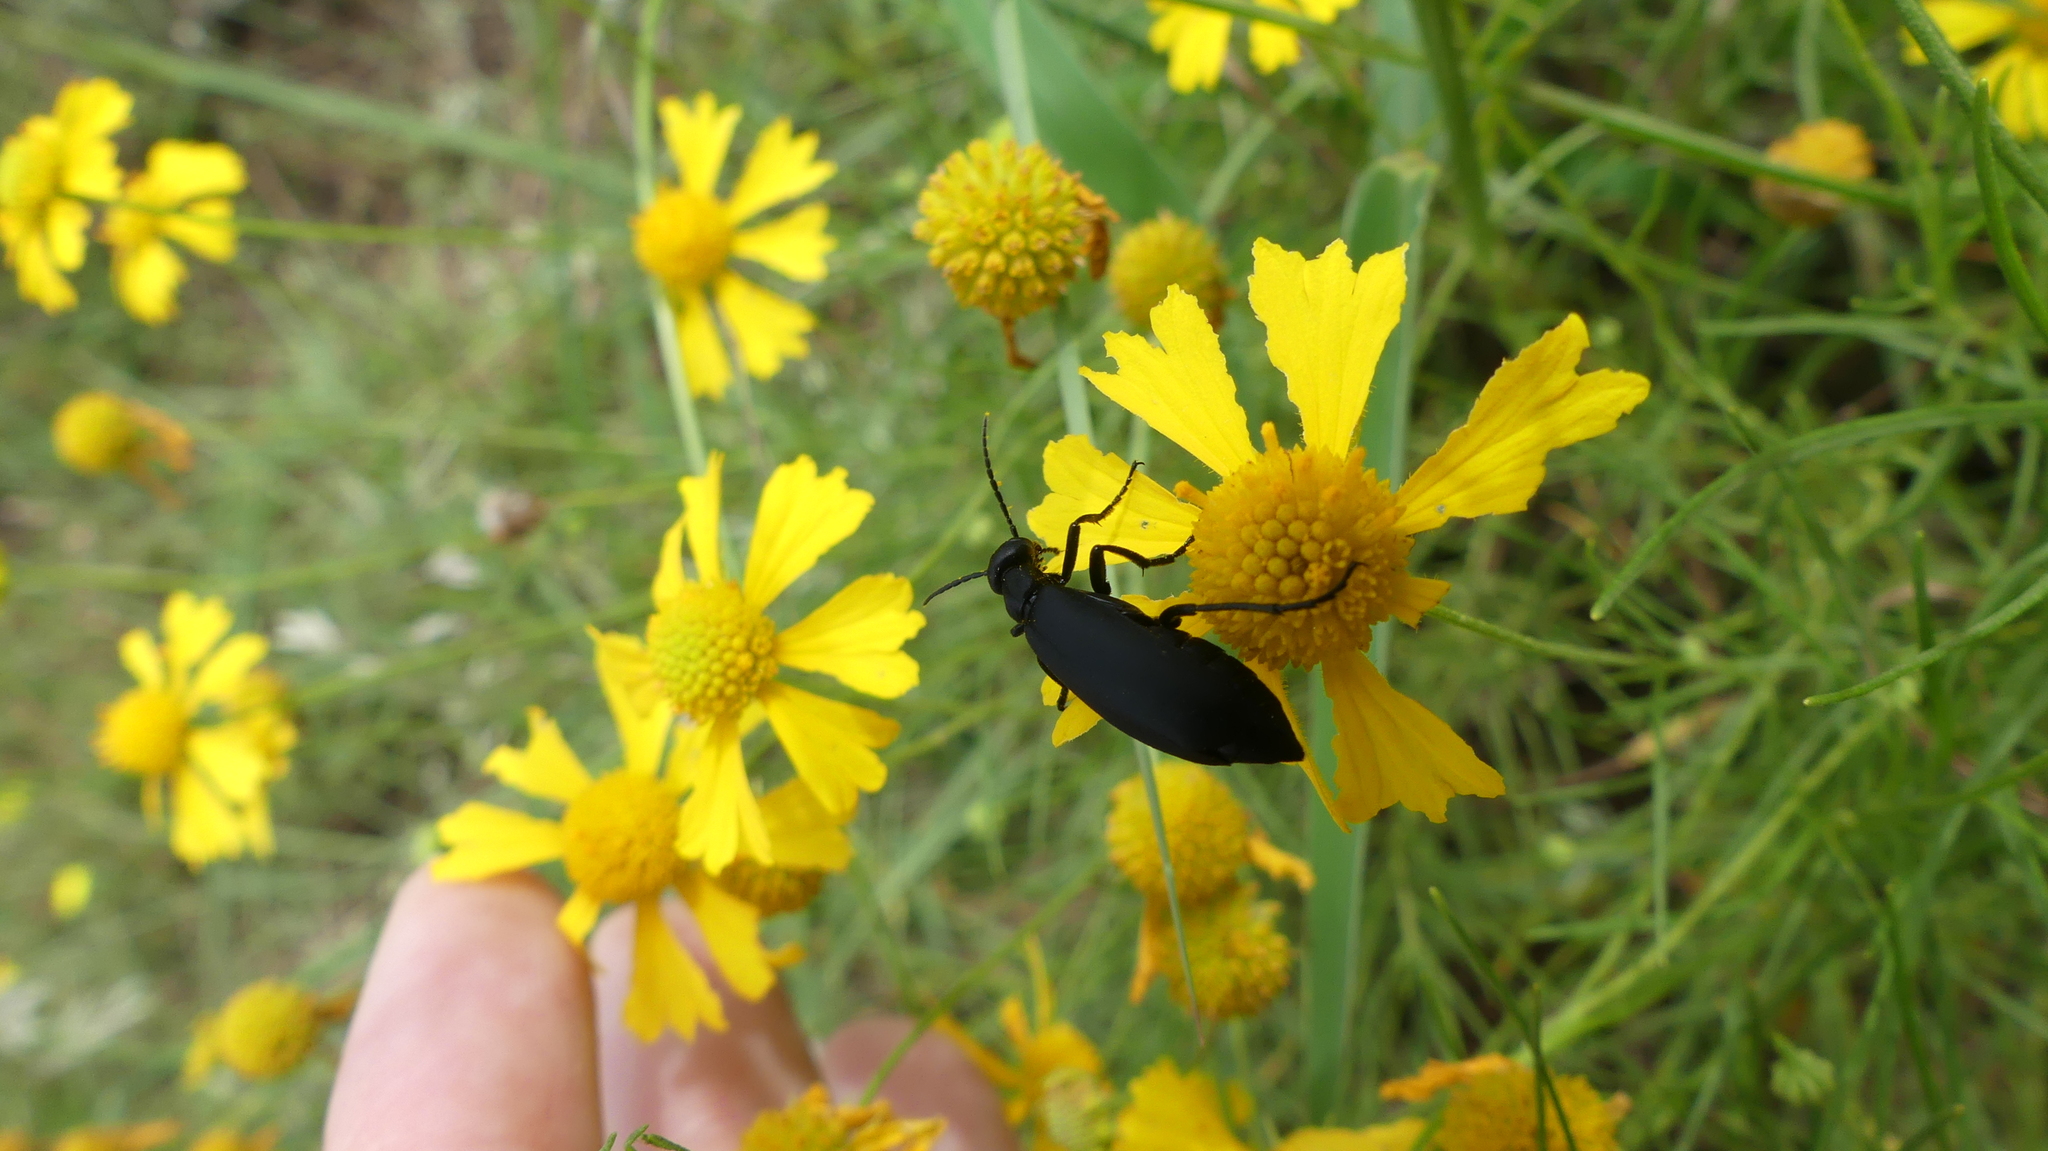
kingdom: Animalia
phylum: Arthropoda
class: Insecta
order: Coleoptera
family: Meloidae
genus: Epicauta
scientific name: Epicauta pensylvanica
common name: Black blister beetle
